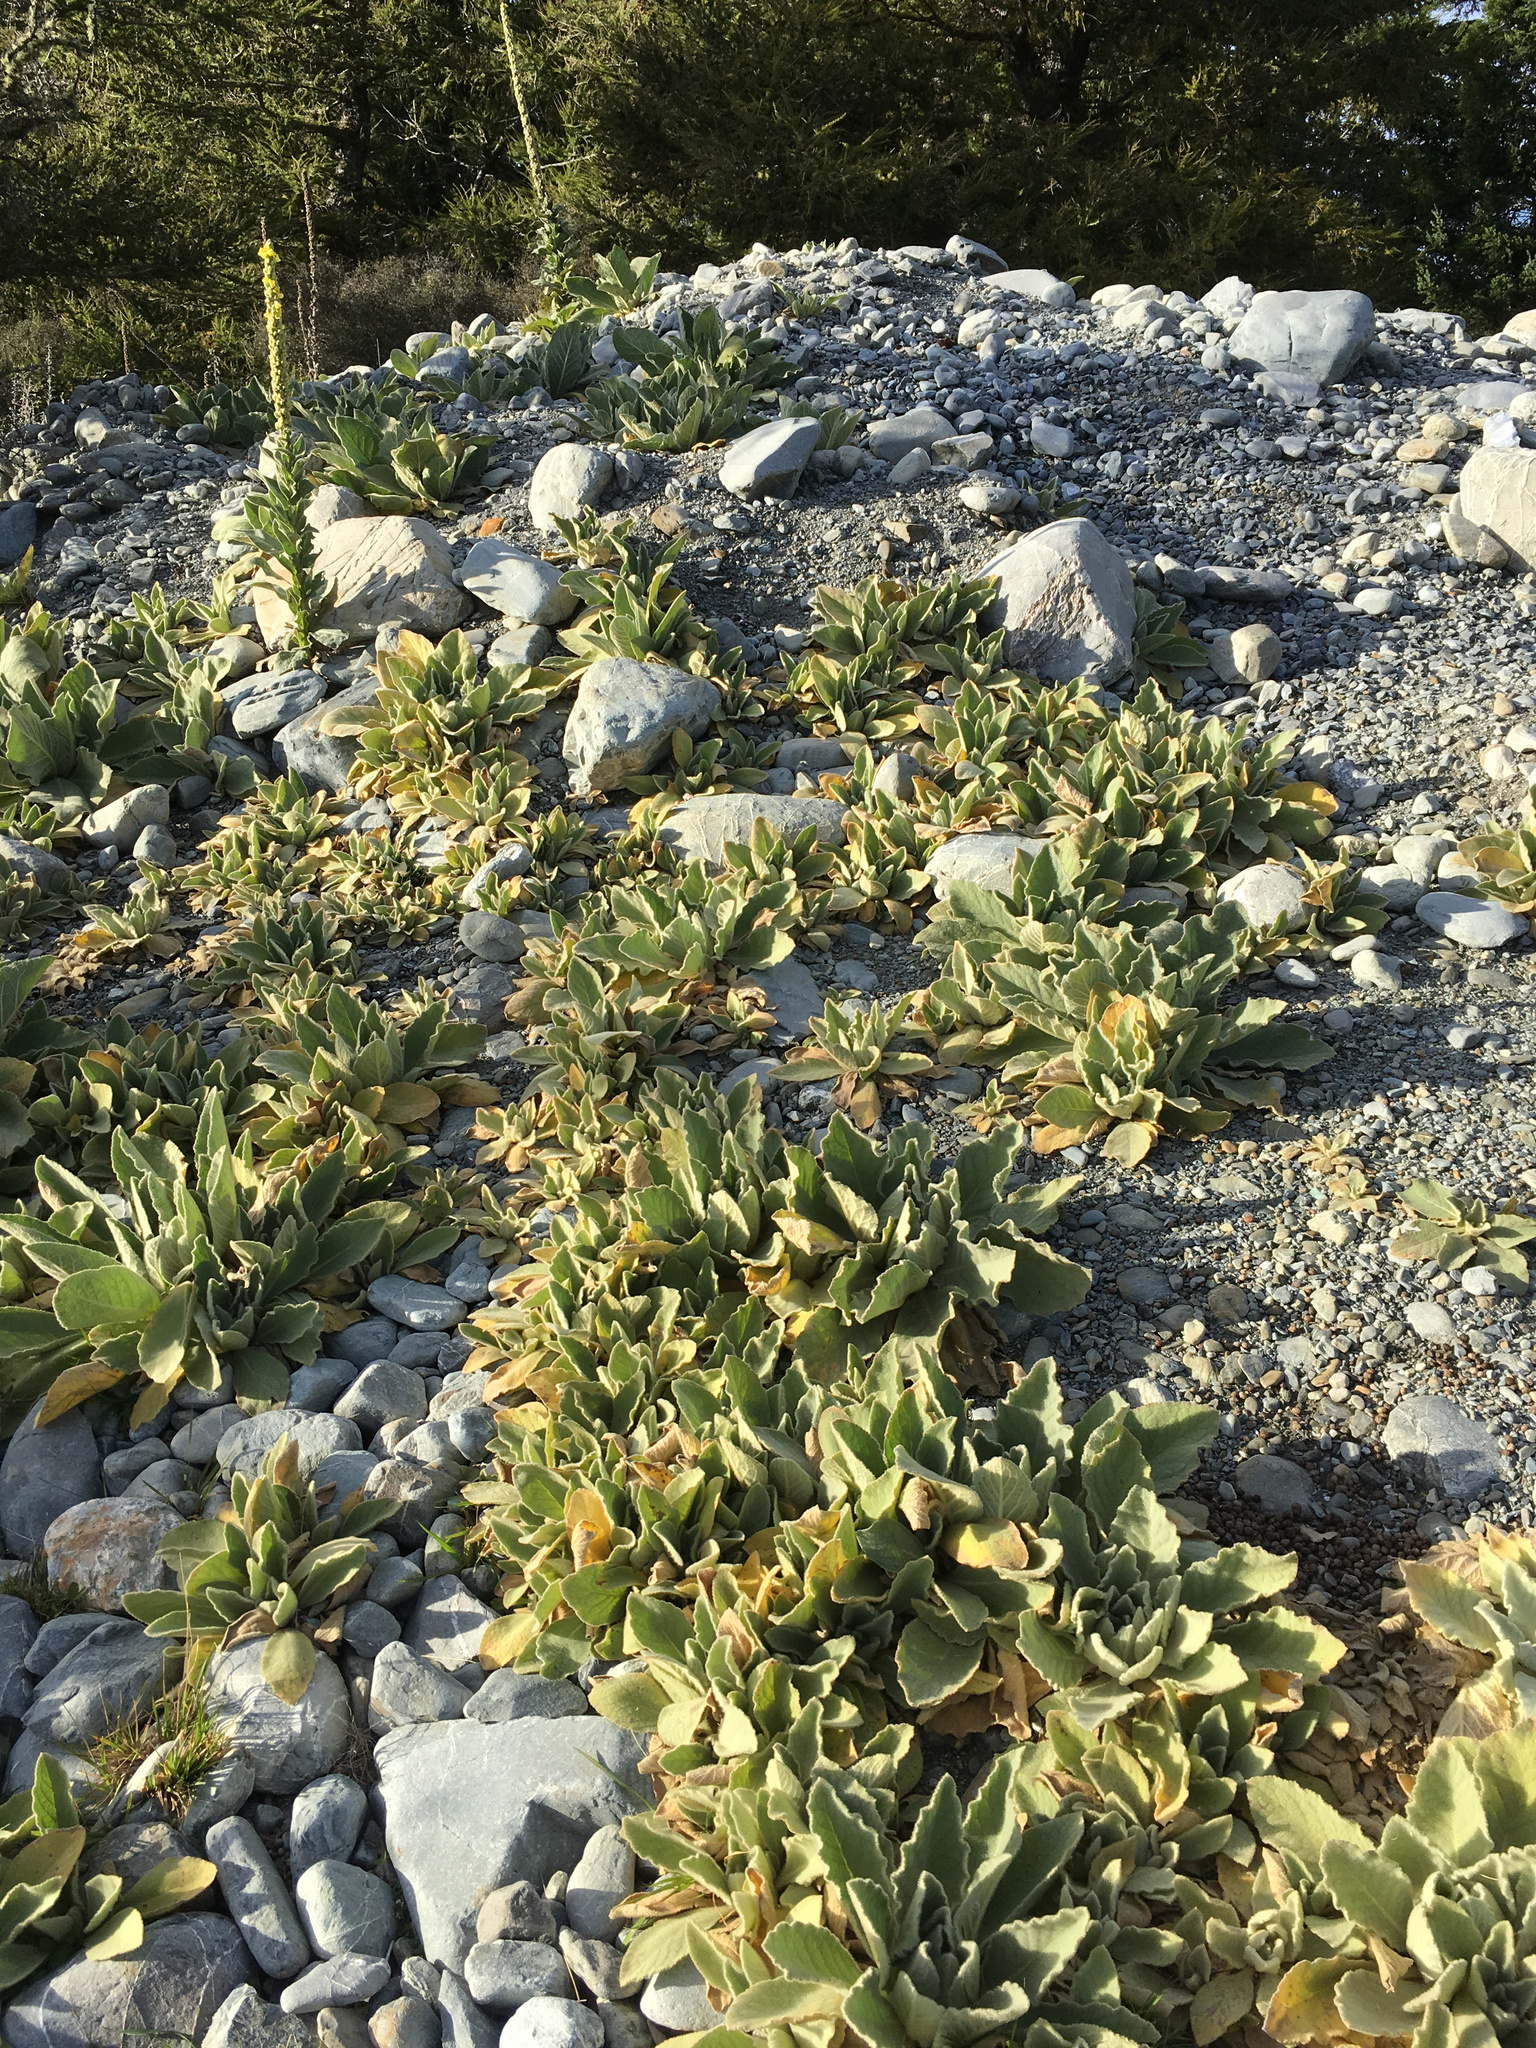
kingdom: Plantae
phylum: Tracheophyta
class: Magnoliopsida
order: Lamiales
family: Scrophulariaceae
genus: Verbascum
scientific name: Verbascum thapsus
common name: Common mullein
